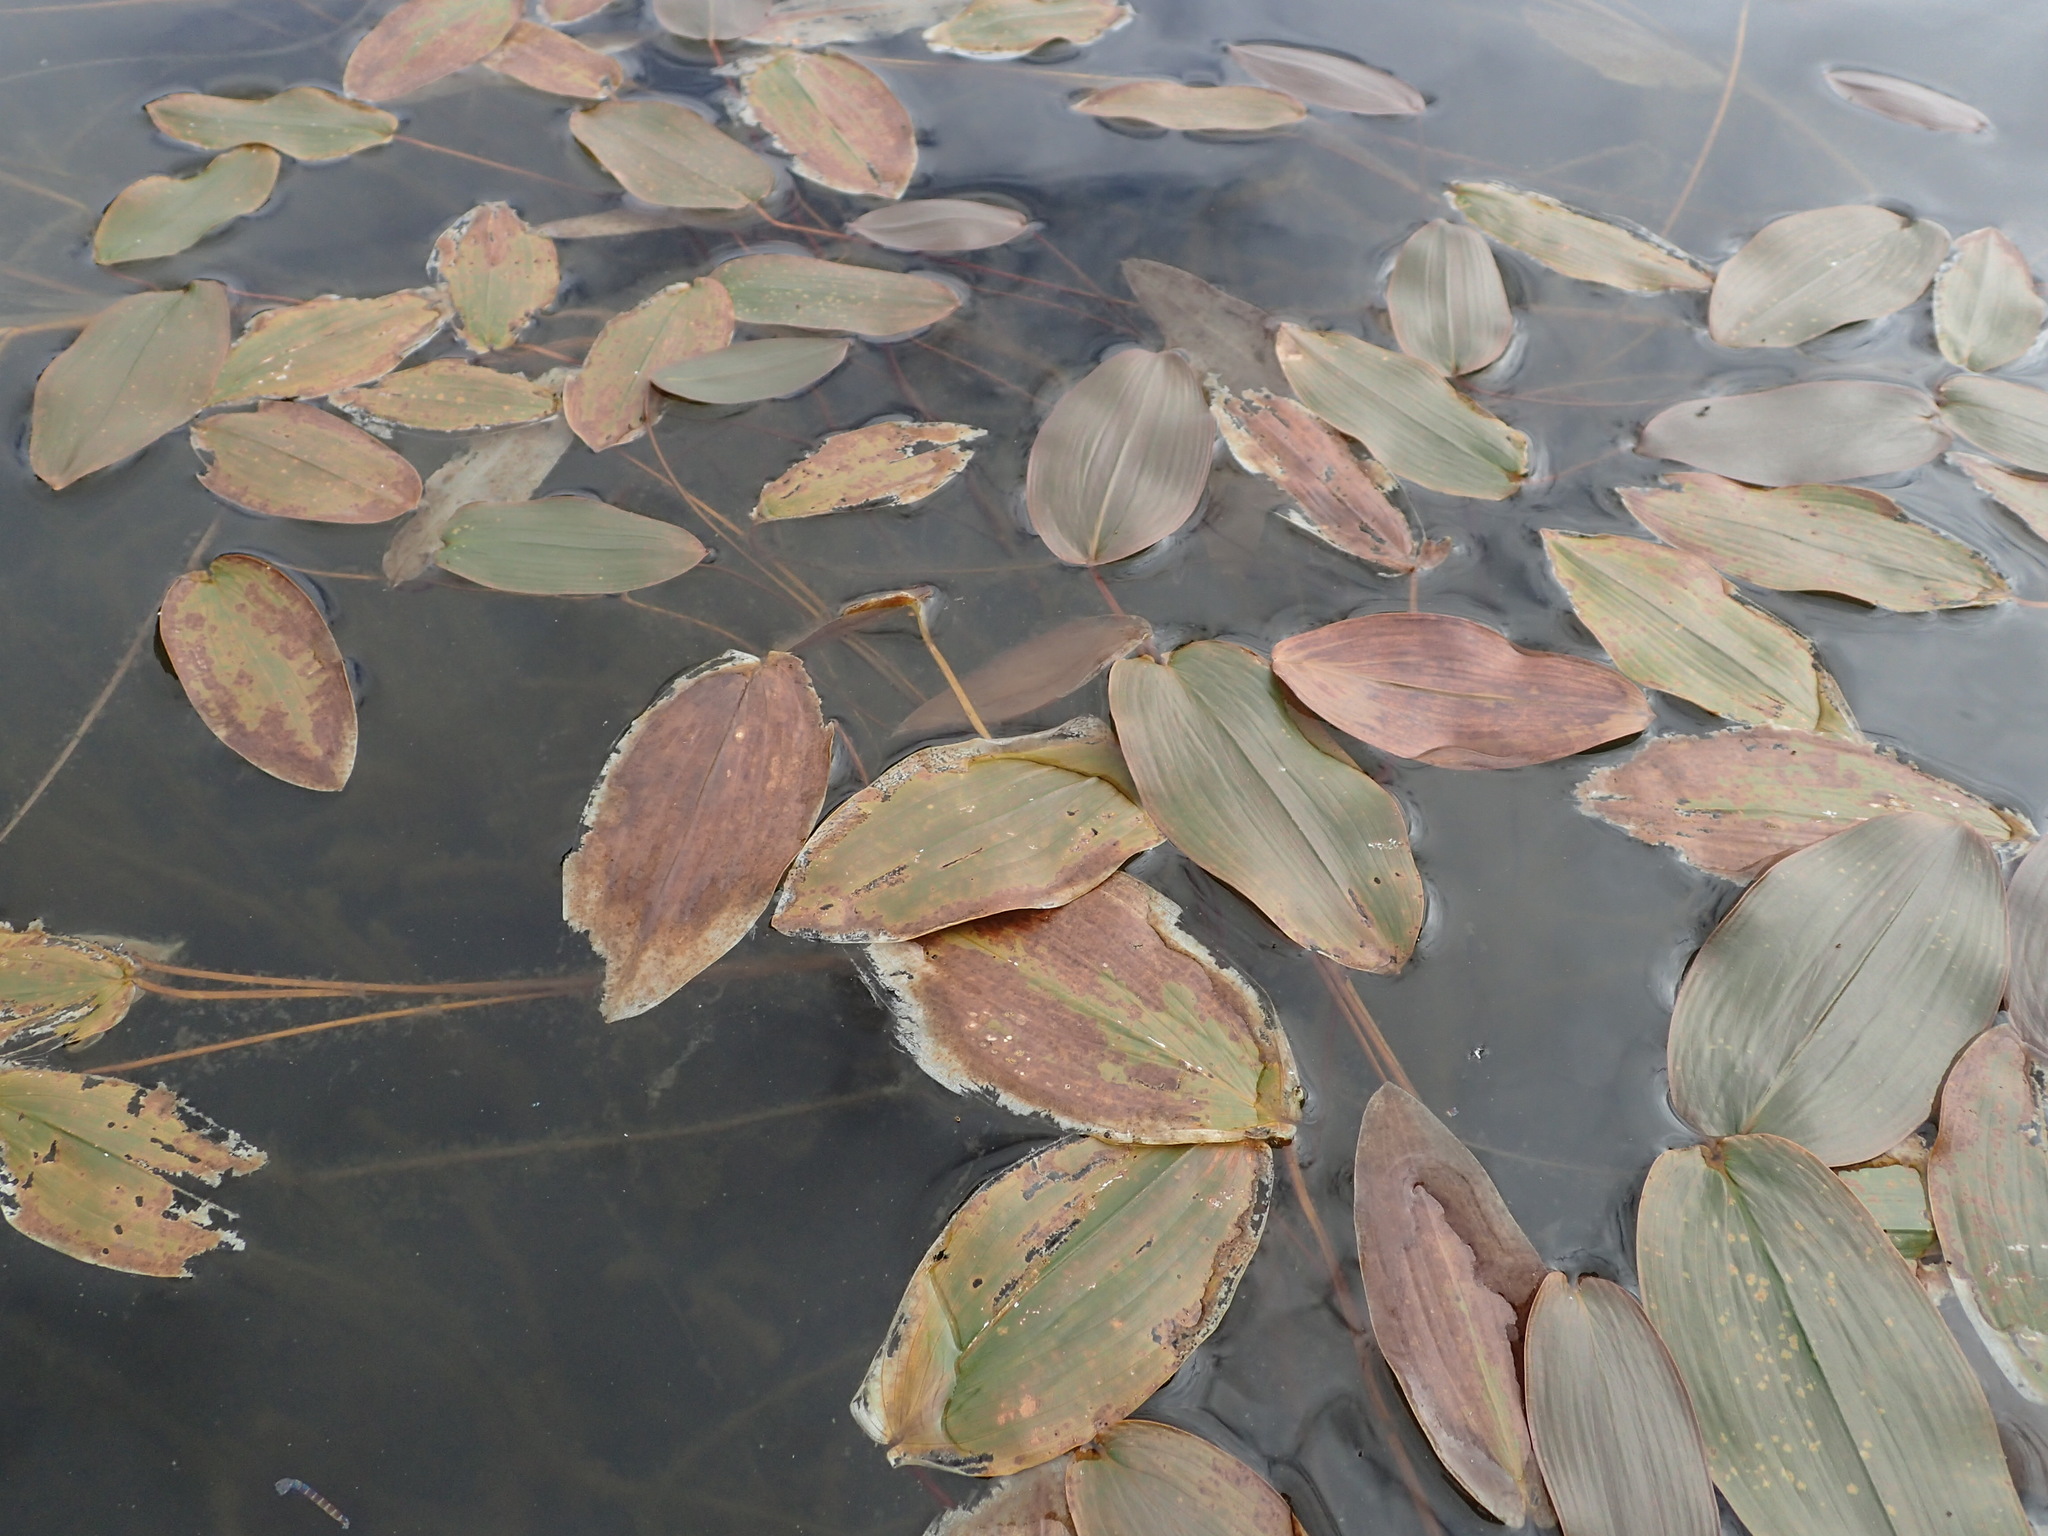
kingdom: Plantae
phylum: Tracheophyta
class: Liliopsida
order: Alismatales
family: Potamogetonaceae
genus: Potamogeton
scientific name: Potamogeton natans
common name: Broad-leaved pondweed
